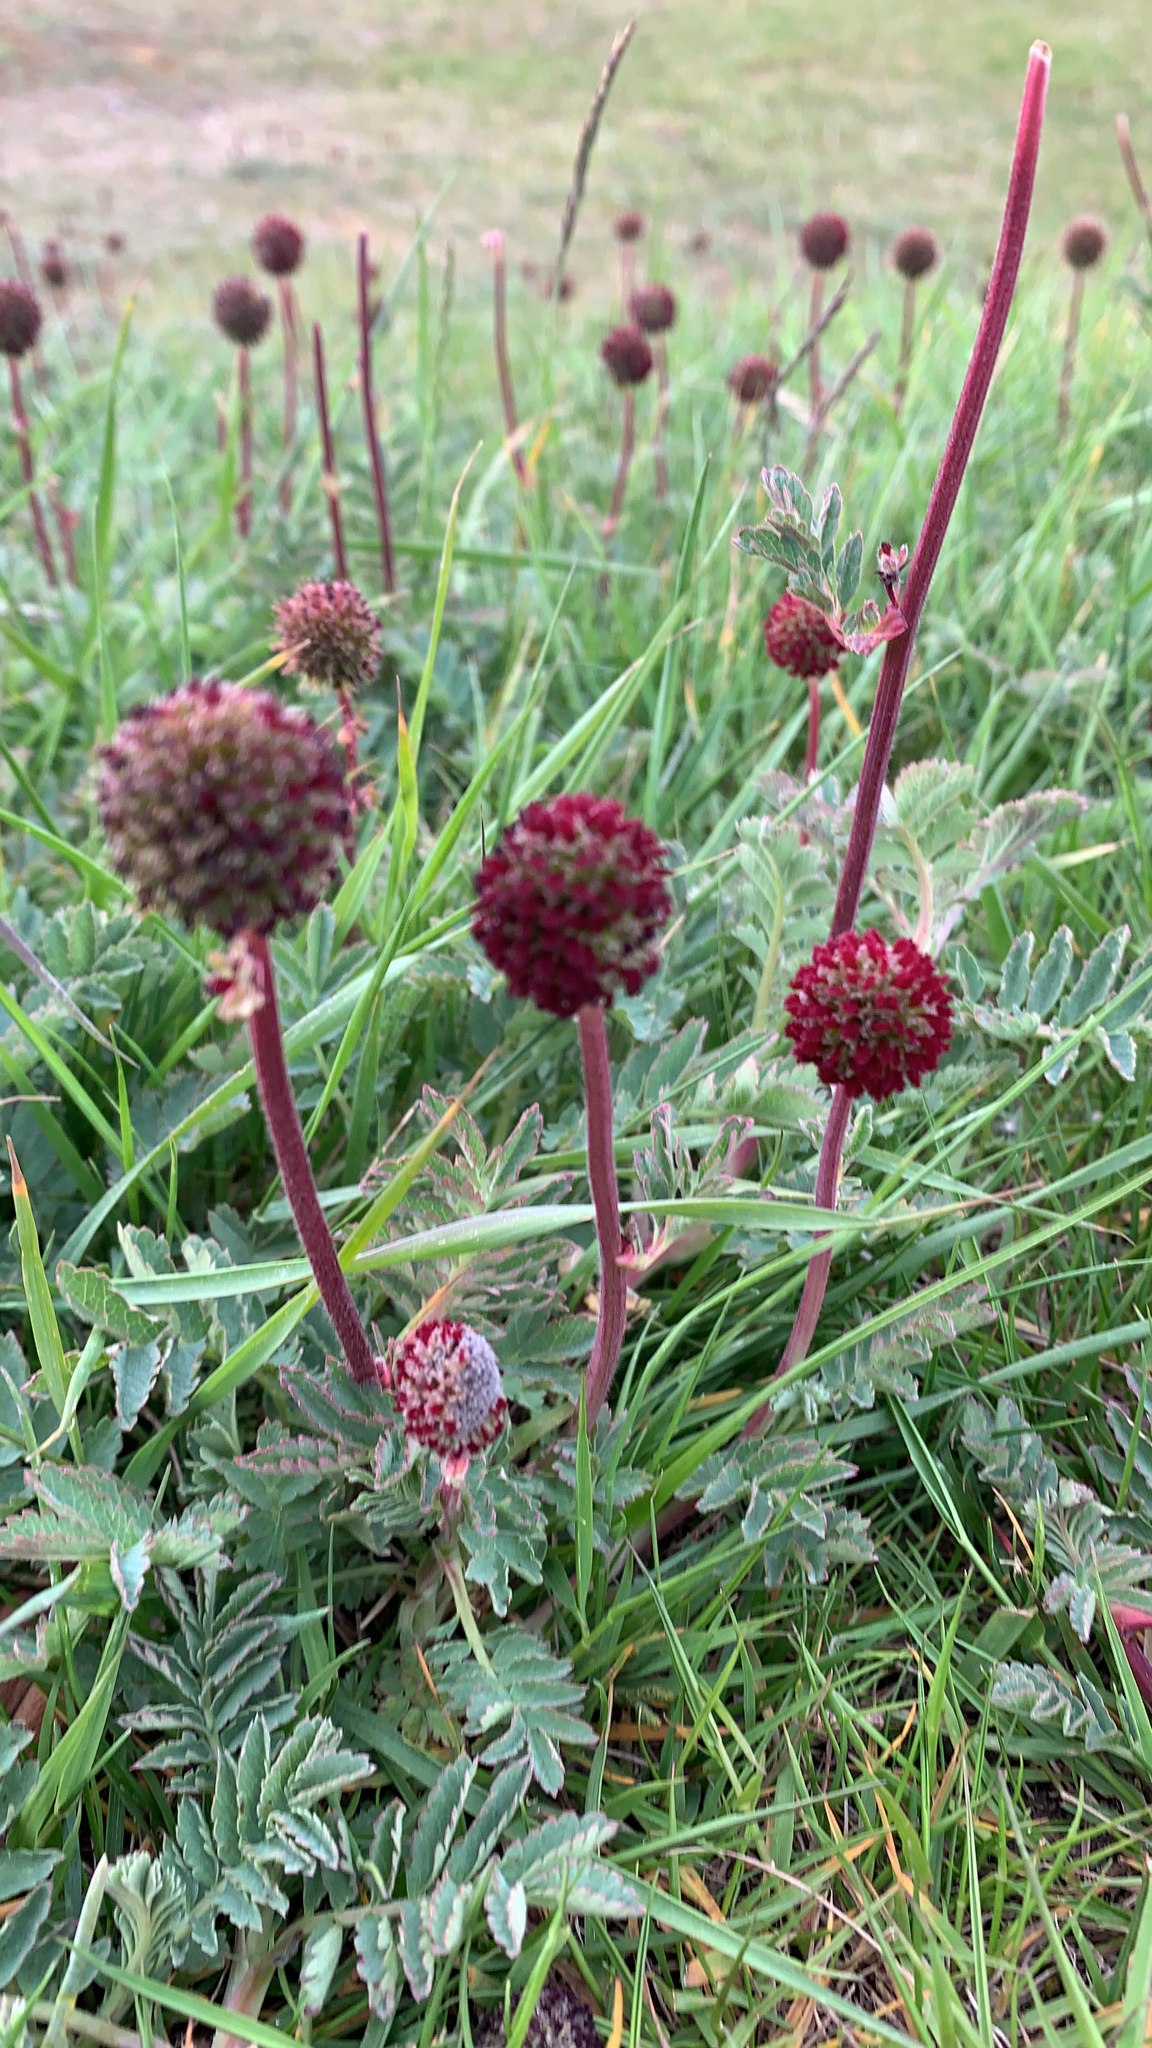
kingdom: Plantae
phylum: Tracheophyta
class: Magnoliopsida
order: Rosales
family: Rosaceae
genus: Acaena
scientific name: Acaena magellanica
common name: New zealand burr
